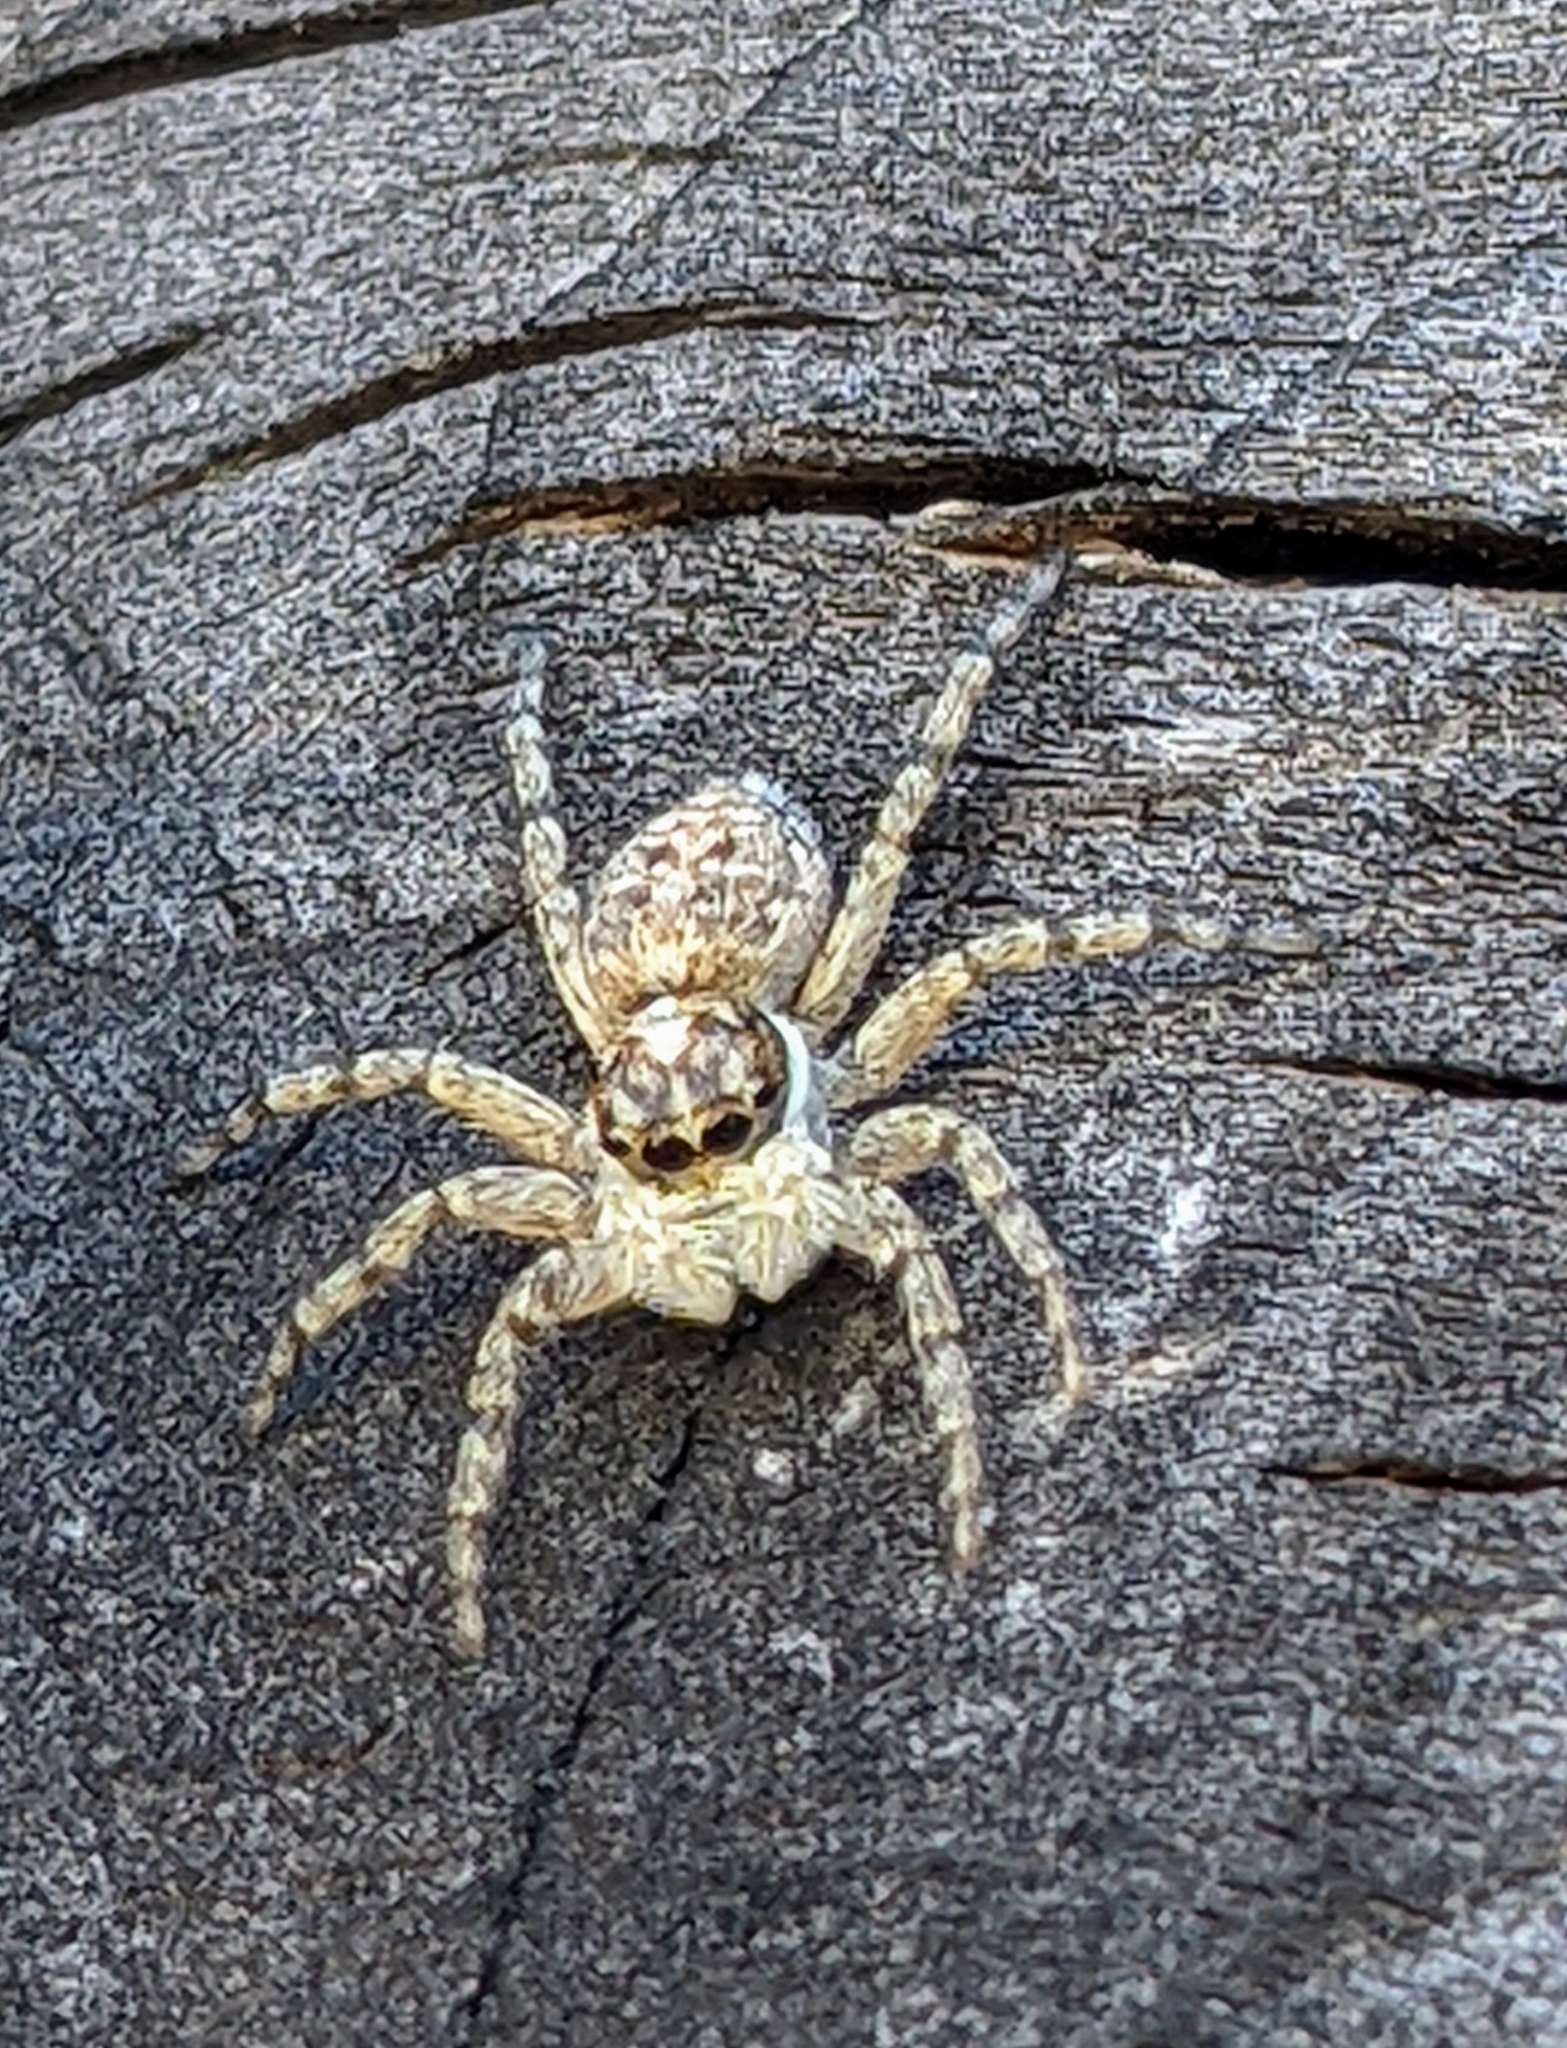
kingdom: Animalia
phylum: Arthropoda
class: Arachnida
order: Araneae
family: Salticidae
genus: Menemerus
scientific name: Menemerus semilimbatus
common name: Jumping spider
